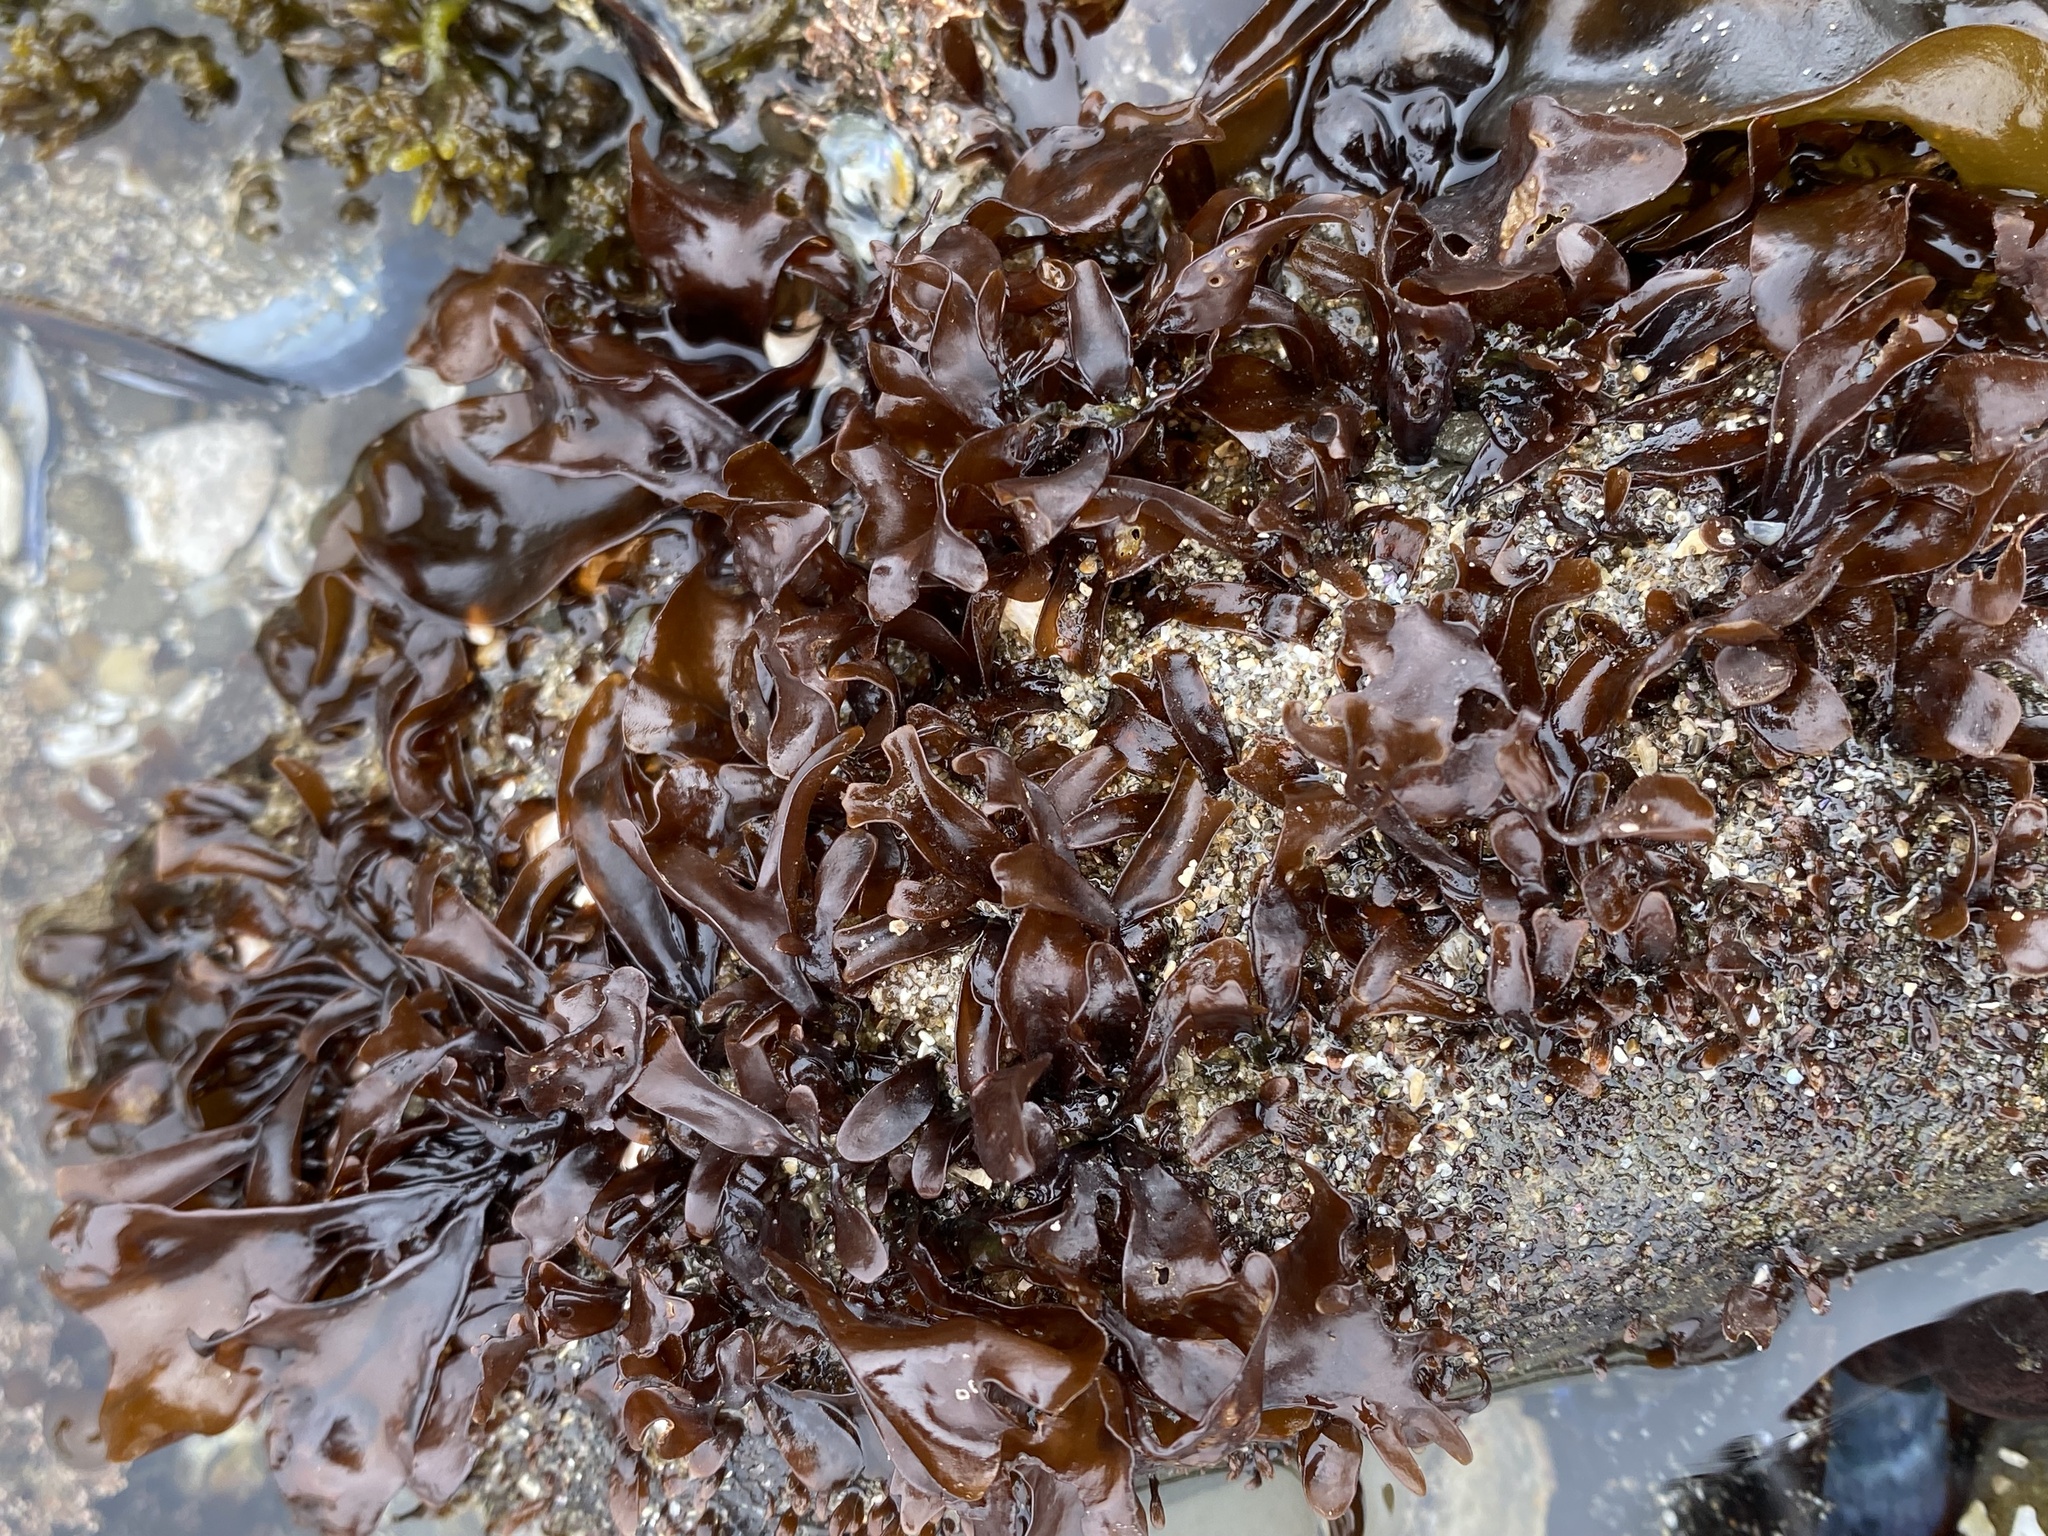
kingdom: Plantae
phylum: Rhodophyta
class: Florideophyceae
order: Gigartinales
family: Phyllophoraceae
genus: Mastocarpus
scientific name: Mastocarpus papillatus
